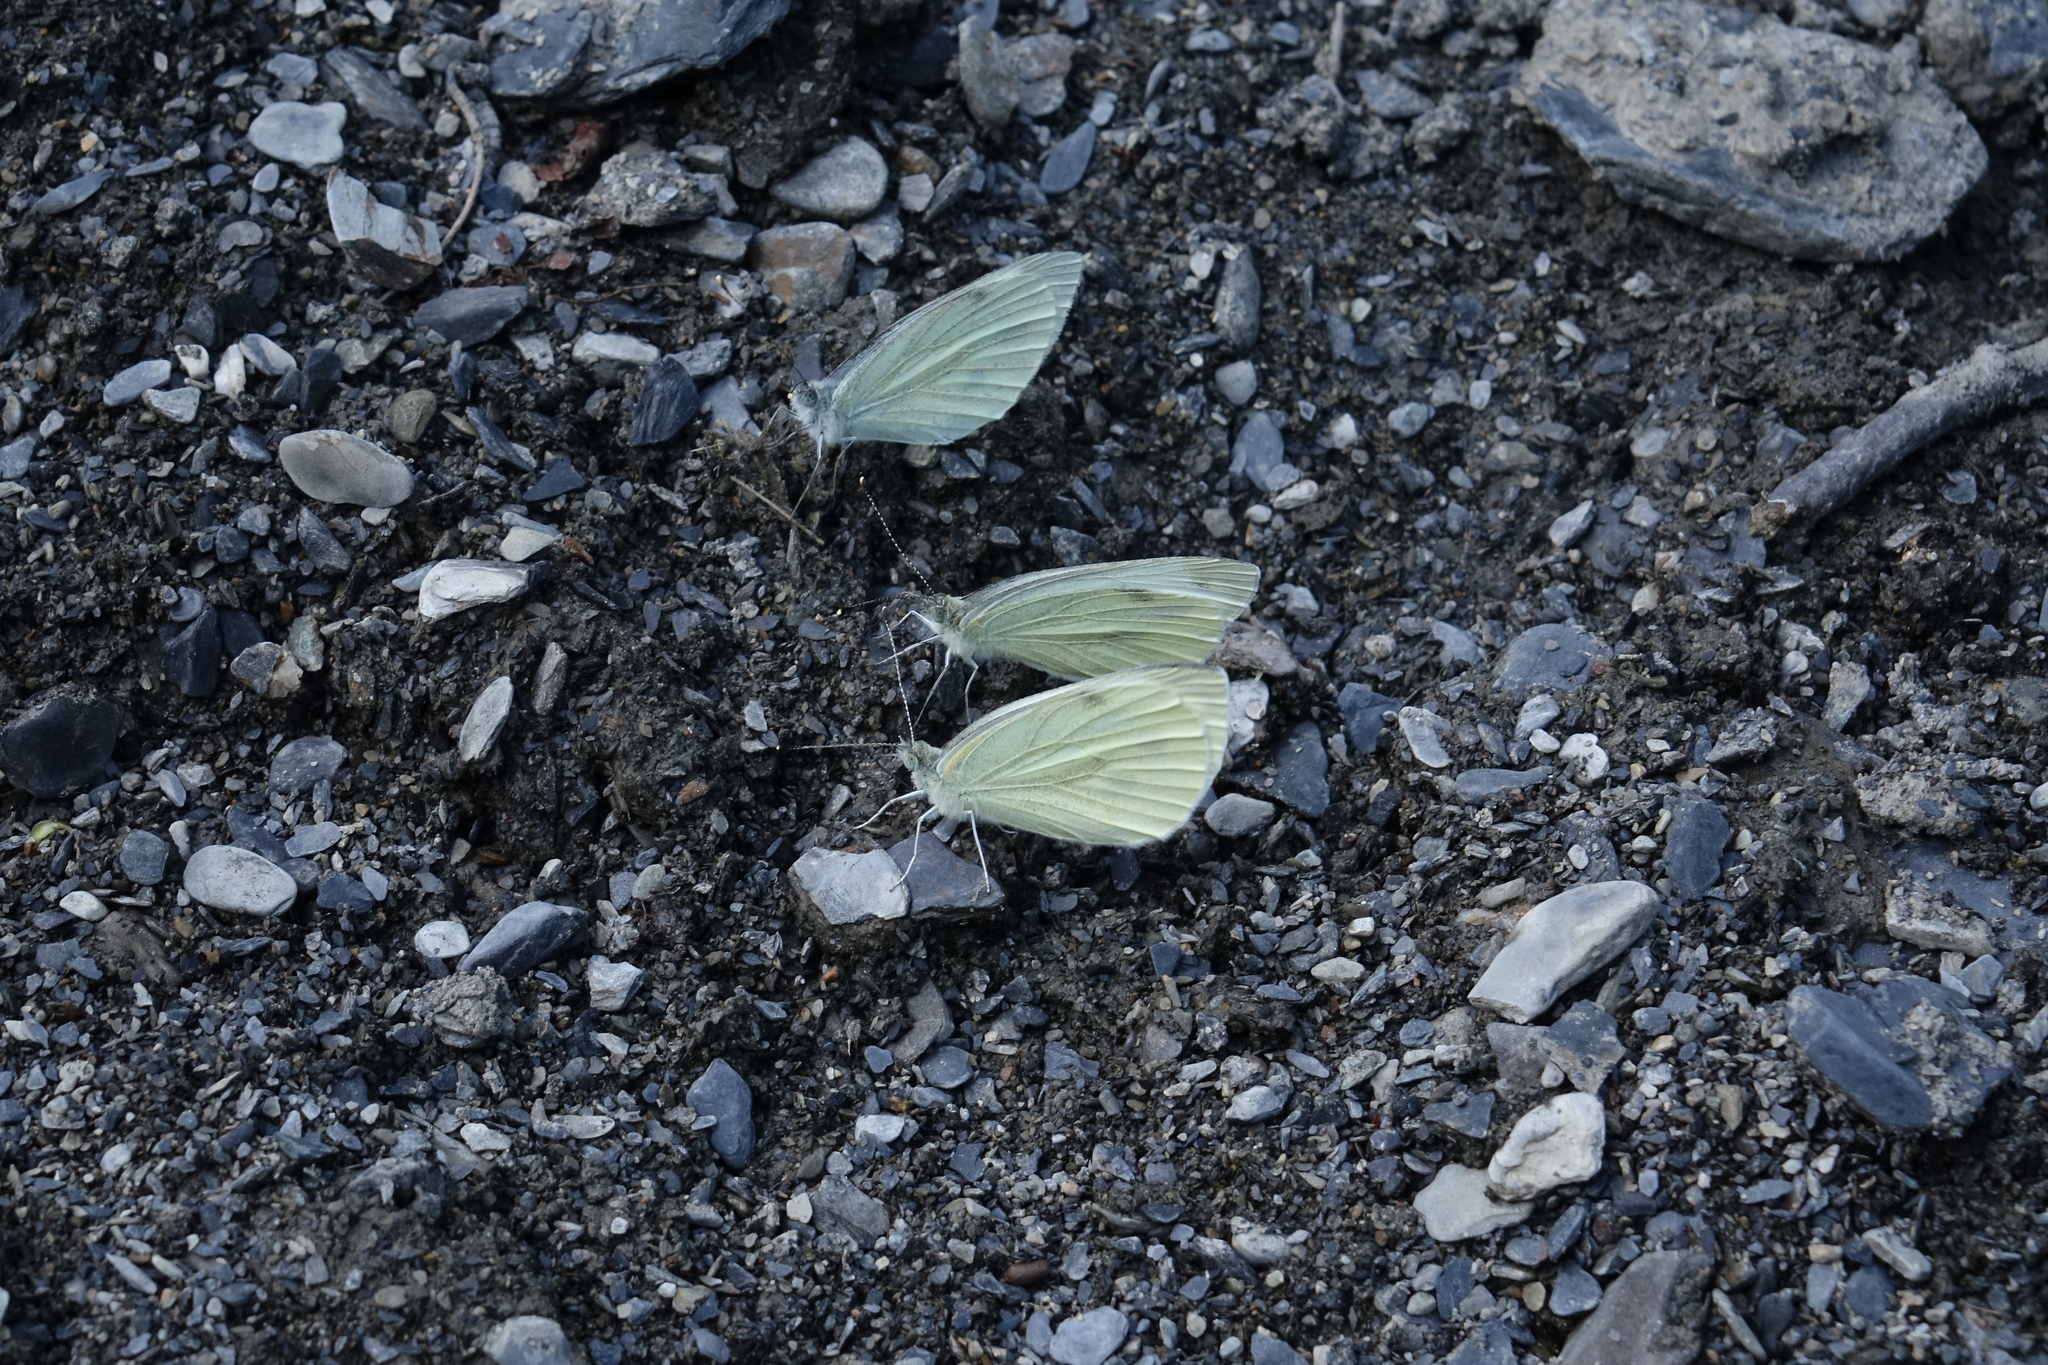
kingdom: Animalia
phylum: Arthropoda
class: Insecta
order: Lepidoptera
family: Pieridae
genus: Pieris
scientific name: Pieris napi
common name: Green-veined white
